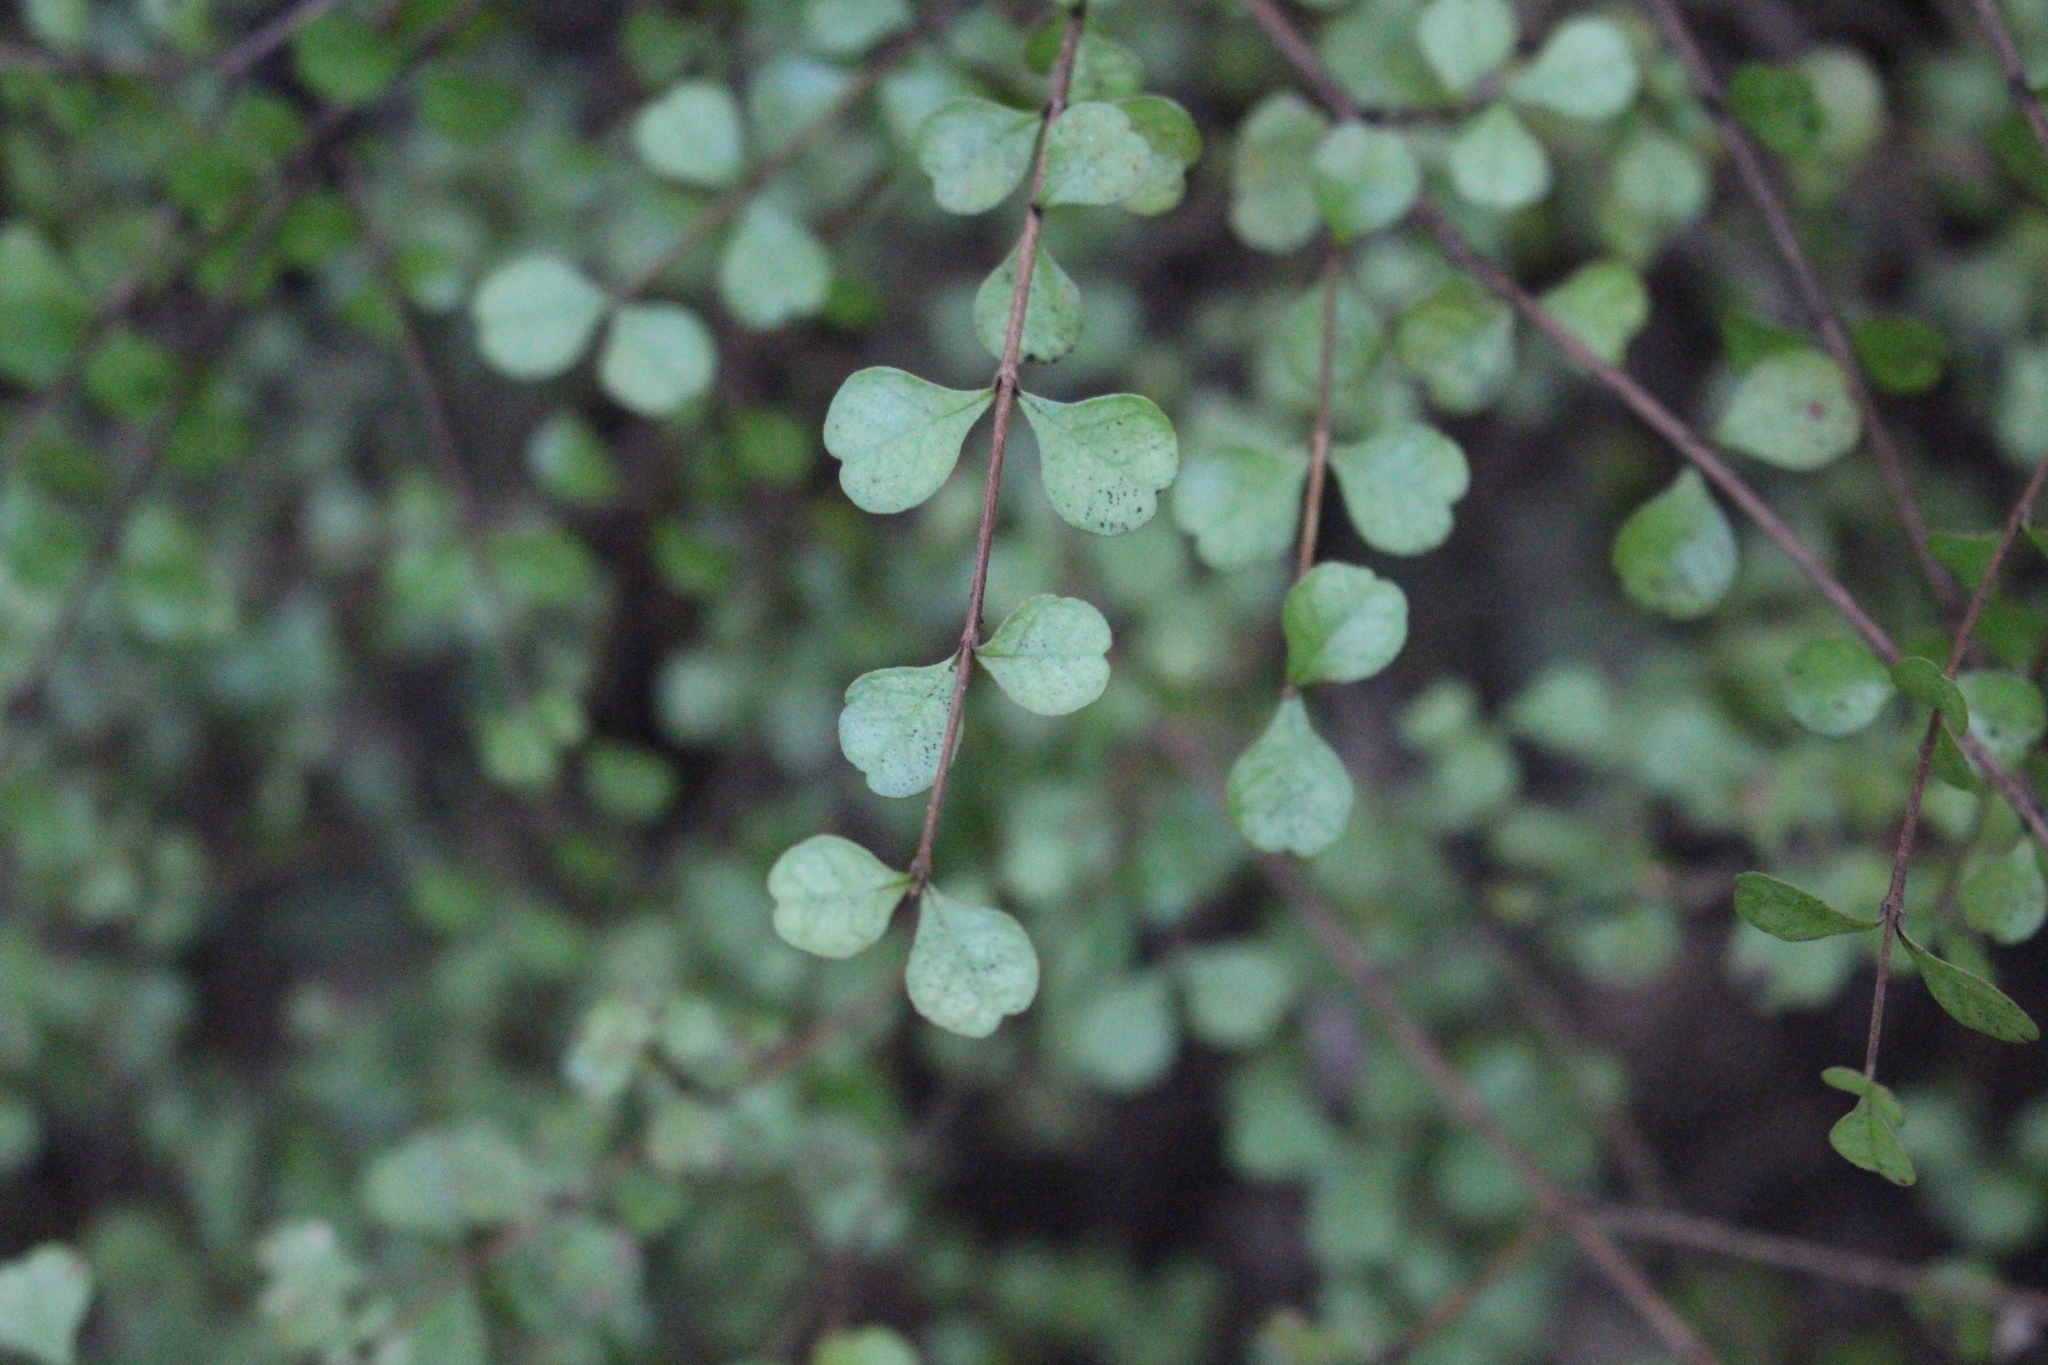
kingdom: Plantae
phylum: Tracheophyta
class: Magnoliopsida
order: Myrtales
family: Myrtaceae
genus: Lophomyrtus
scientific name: Lophomyrtus obcordata
